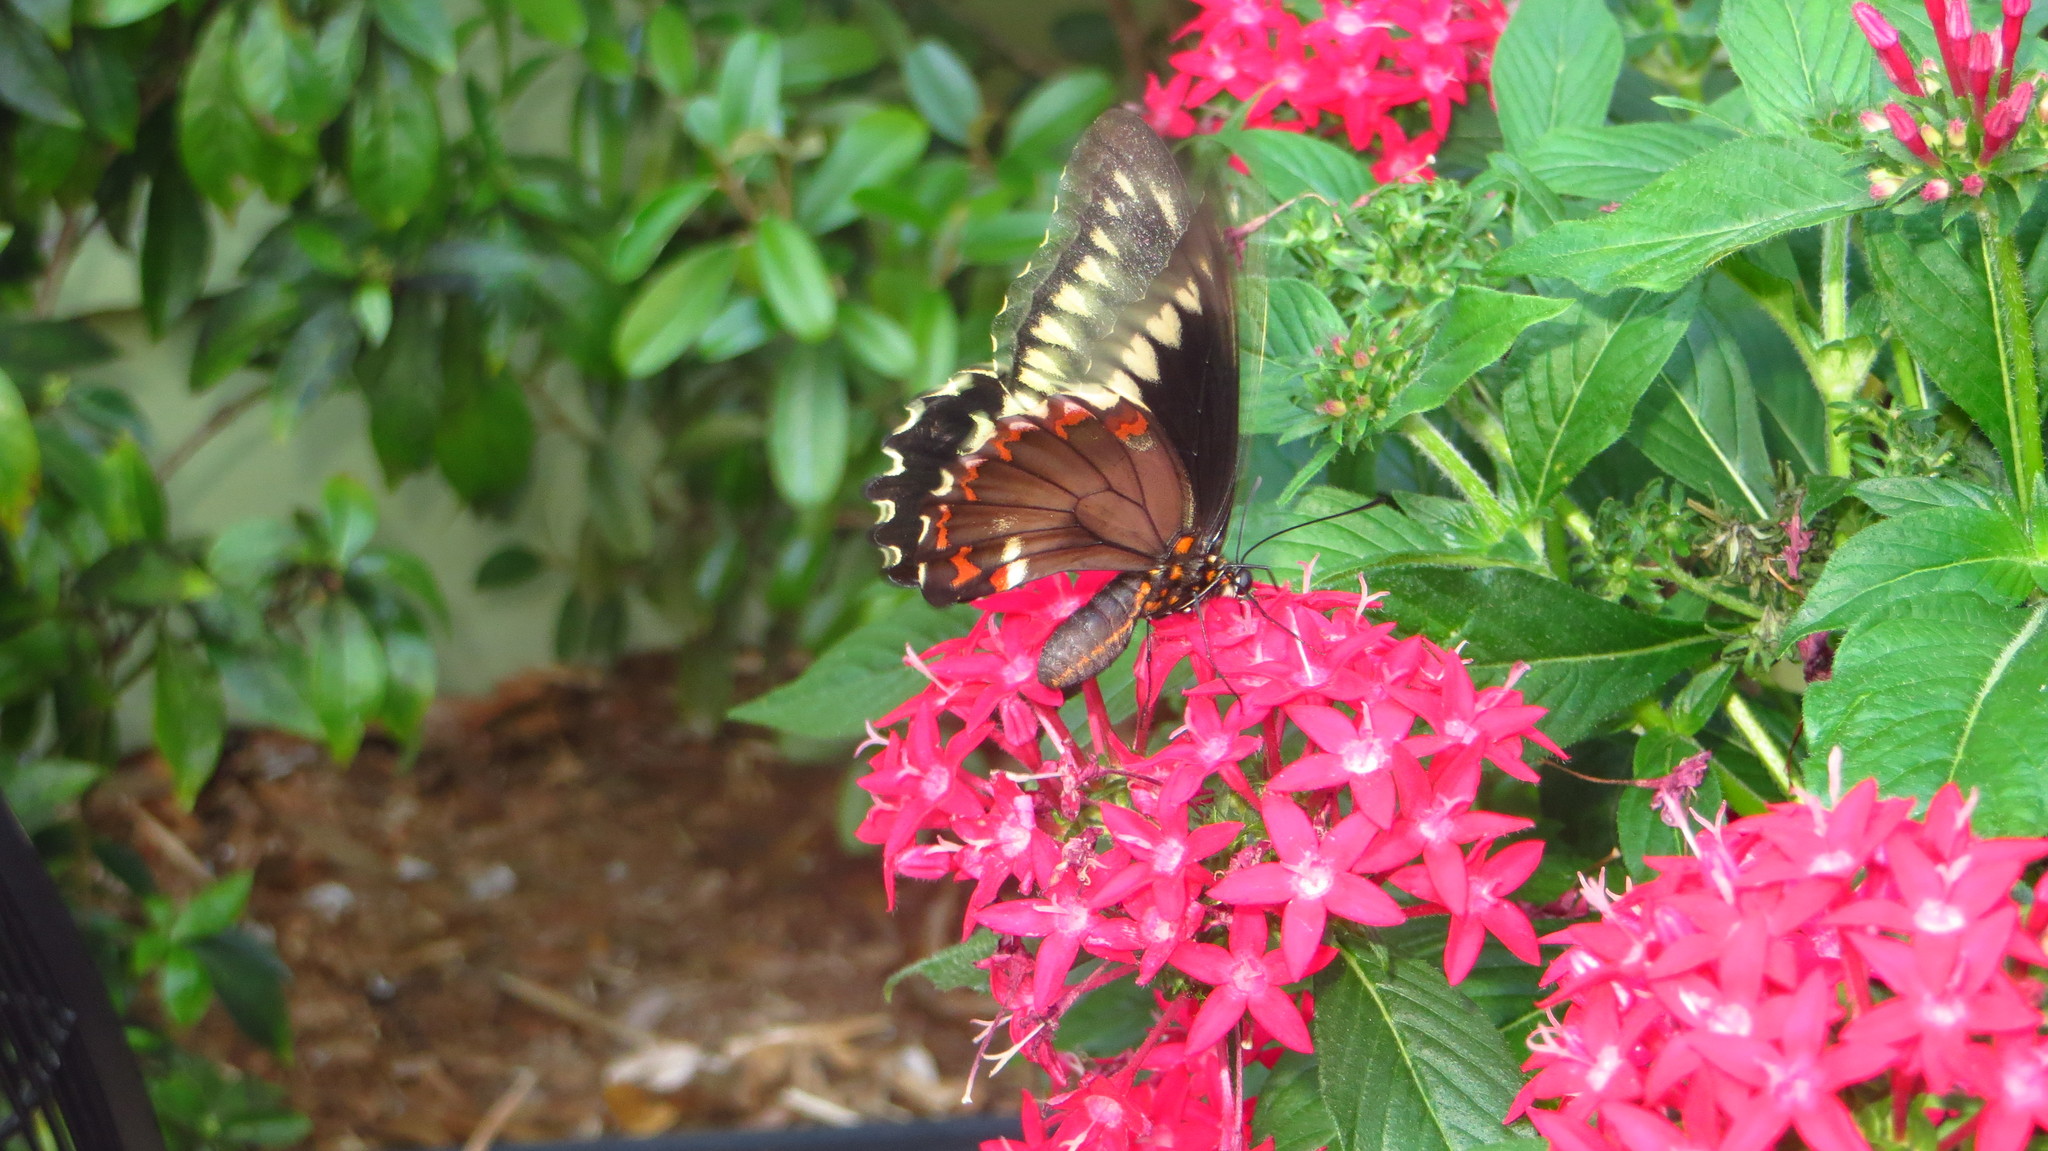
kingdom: Animalia
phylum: Arthropoda
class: Insecta
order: Lepidoptera
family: Papilionidae
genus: Battus
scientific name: Battus polydamas
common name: Polydamas swallowtail
